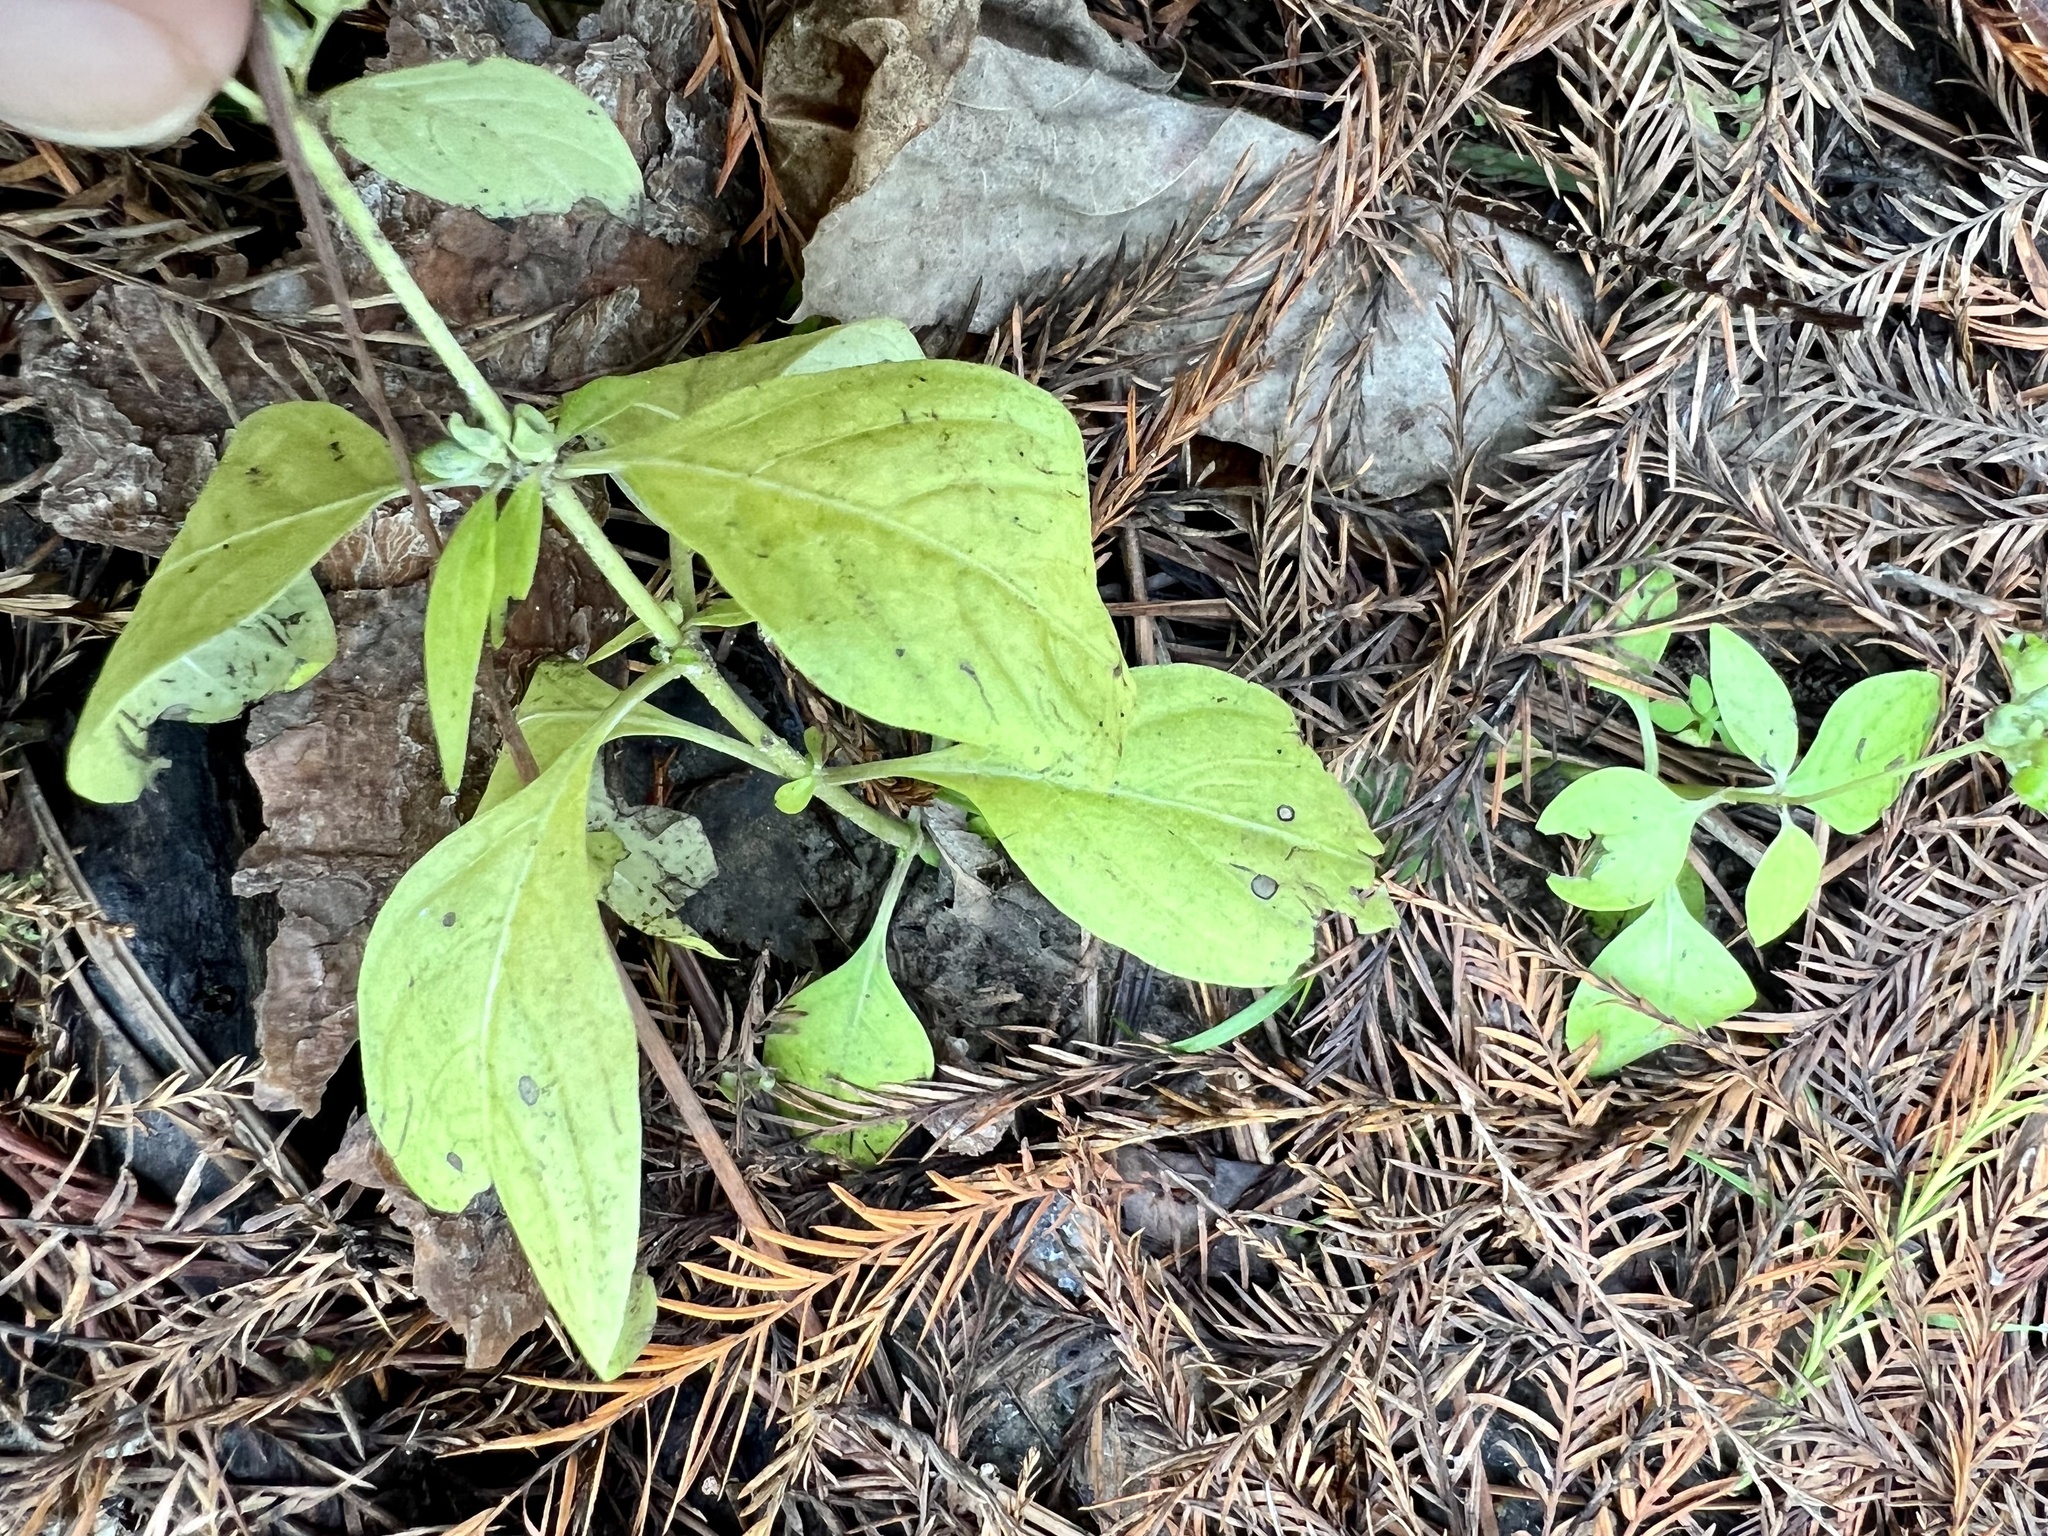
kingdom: Plantae
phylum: Tracheophyta
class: Magnoliopsida
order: Gentianales
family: Loganiaceae
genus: Mitreola
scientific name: Mitreola petiolata
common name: Lax hornpod
